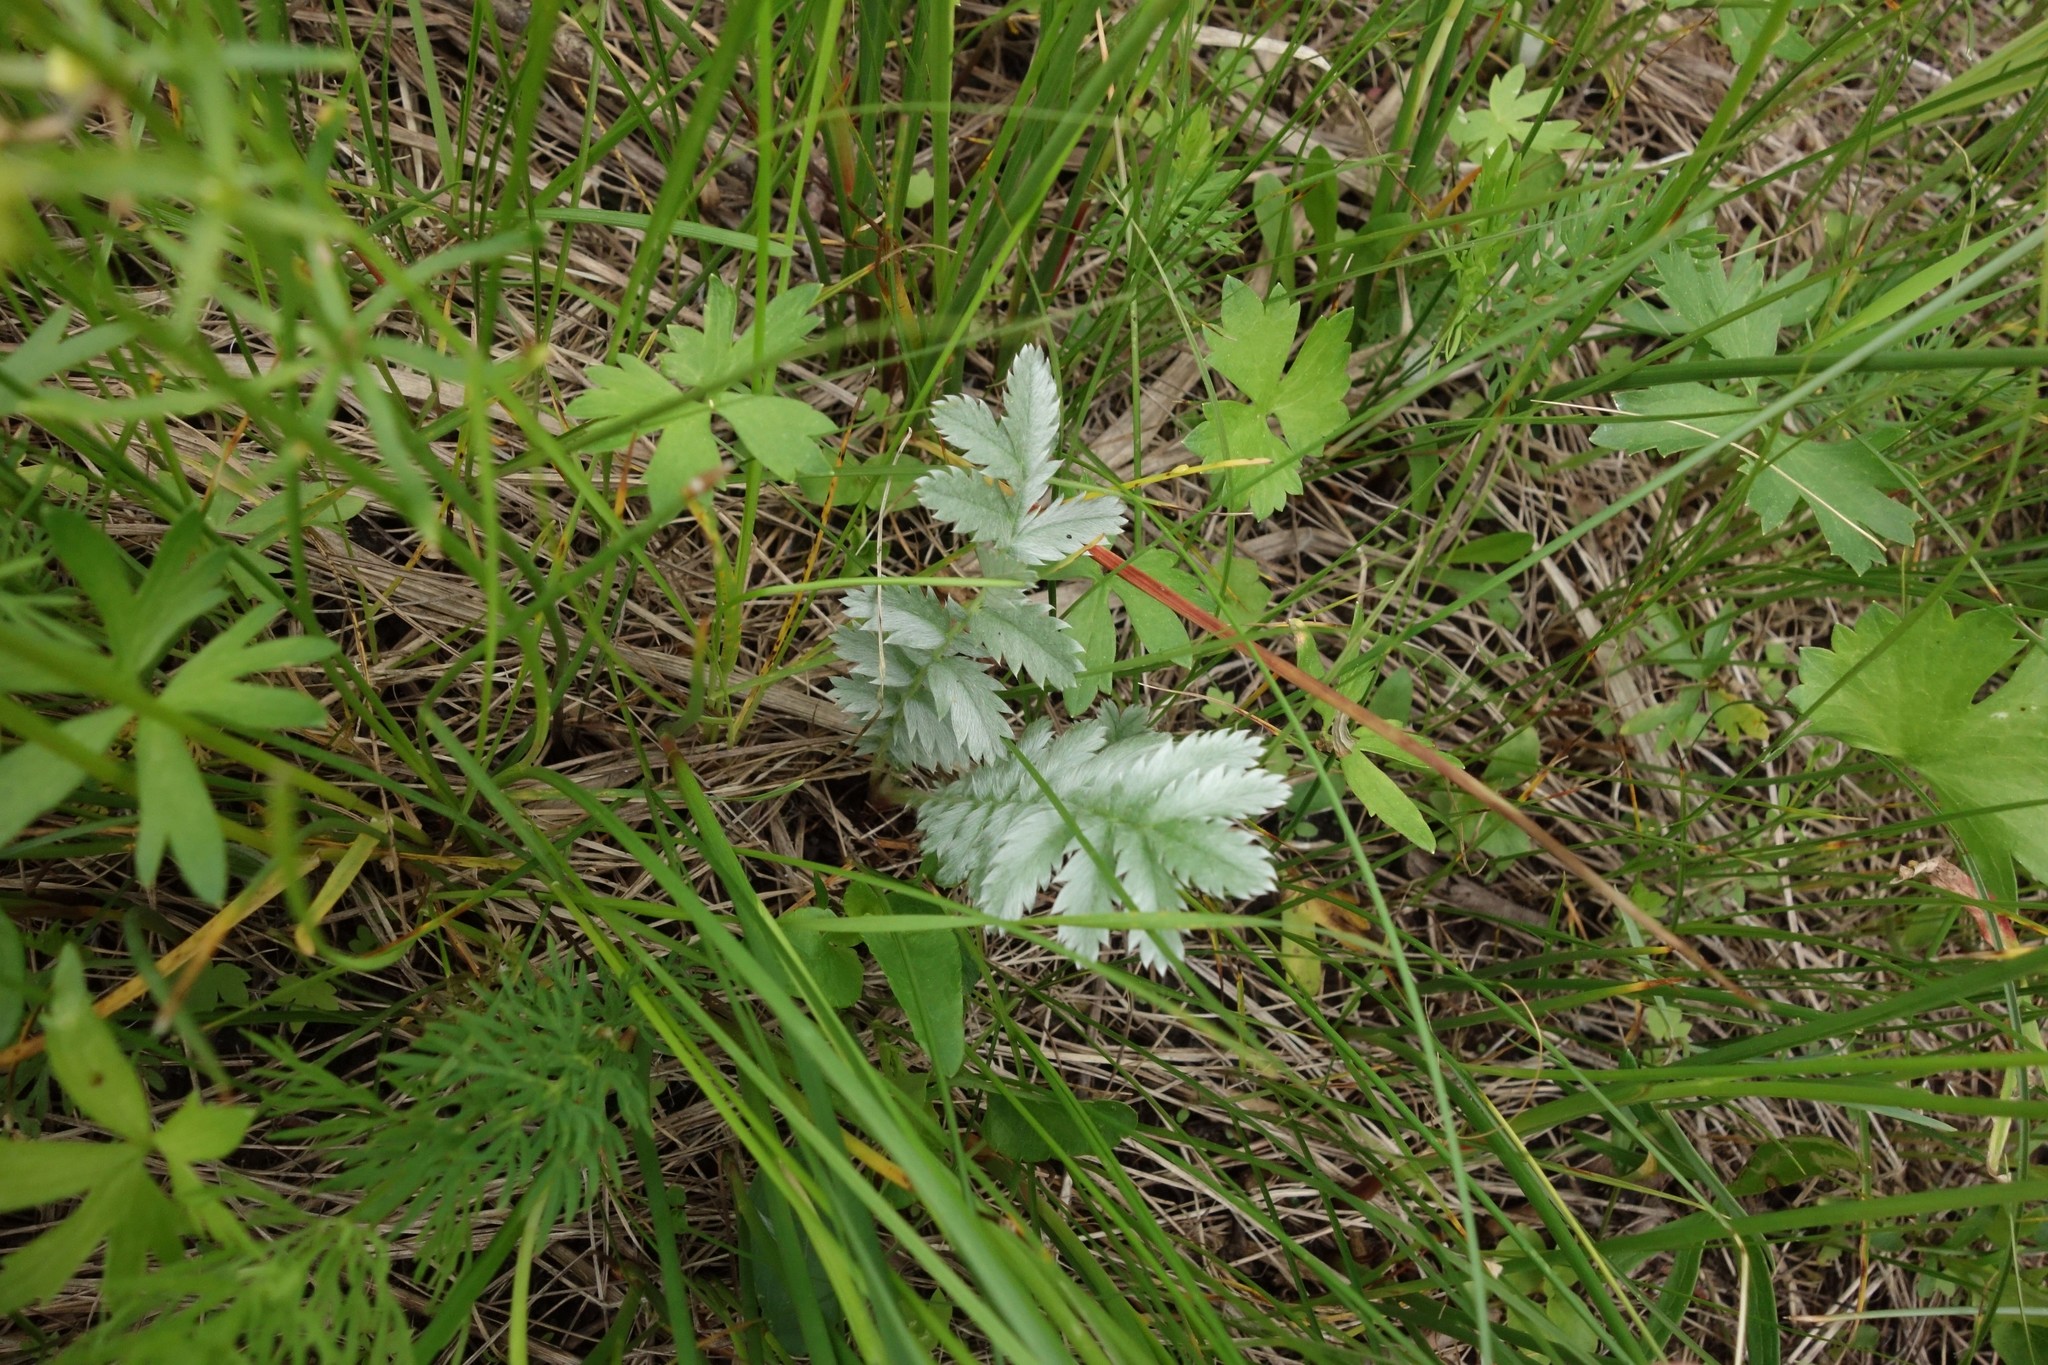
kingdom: Plantae
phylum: Tracheophyta
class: Magnoliopsida
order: Rosales
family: Rosaceae
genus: Argentina
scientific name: Argentina anserina
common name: Common silverweed
